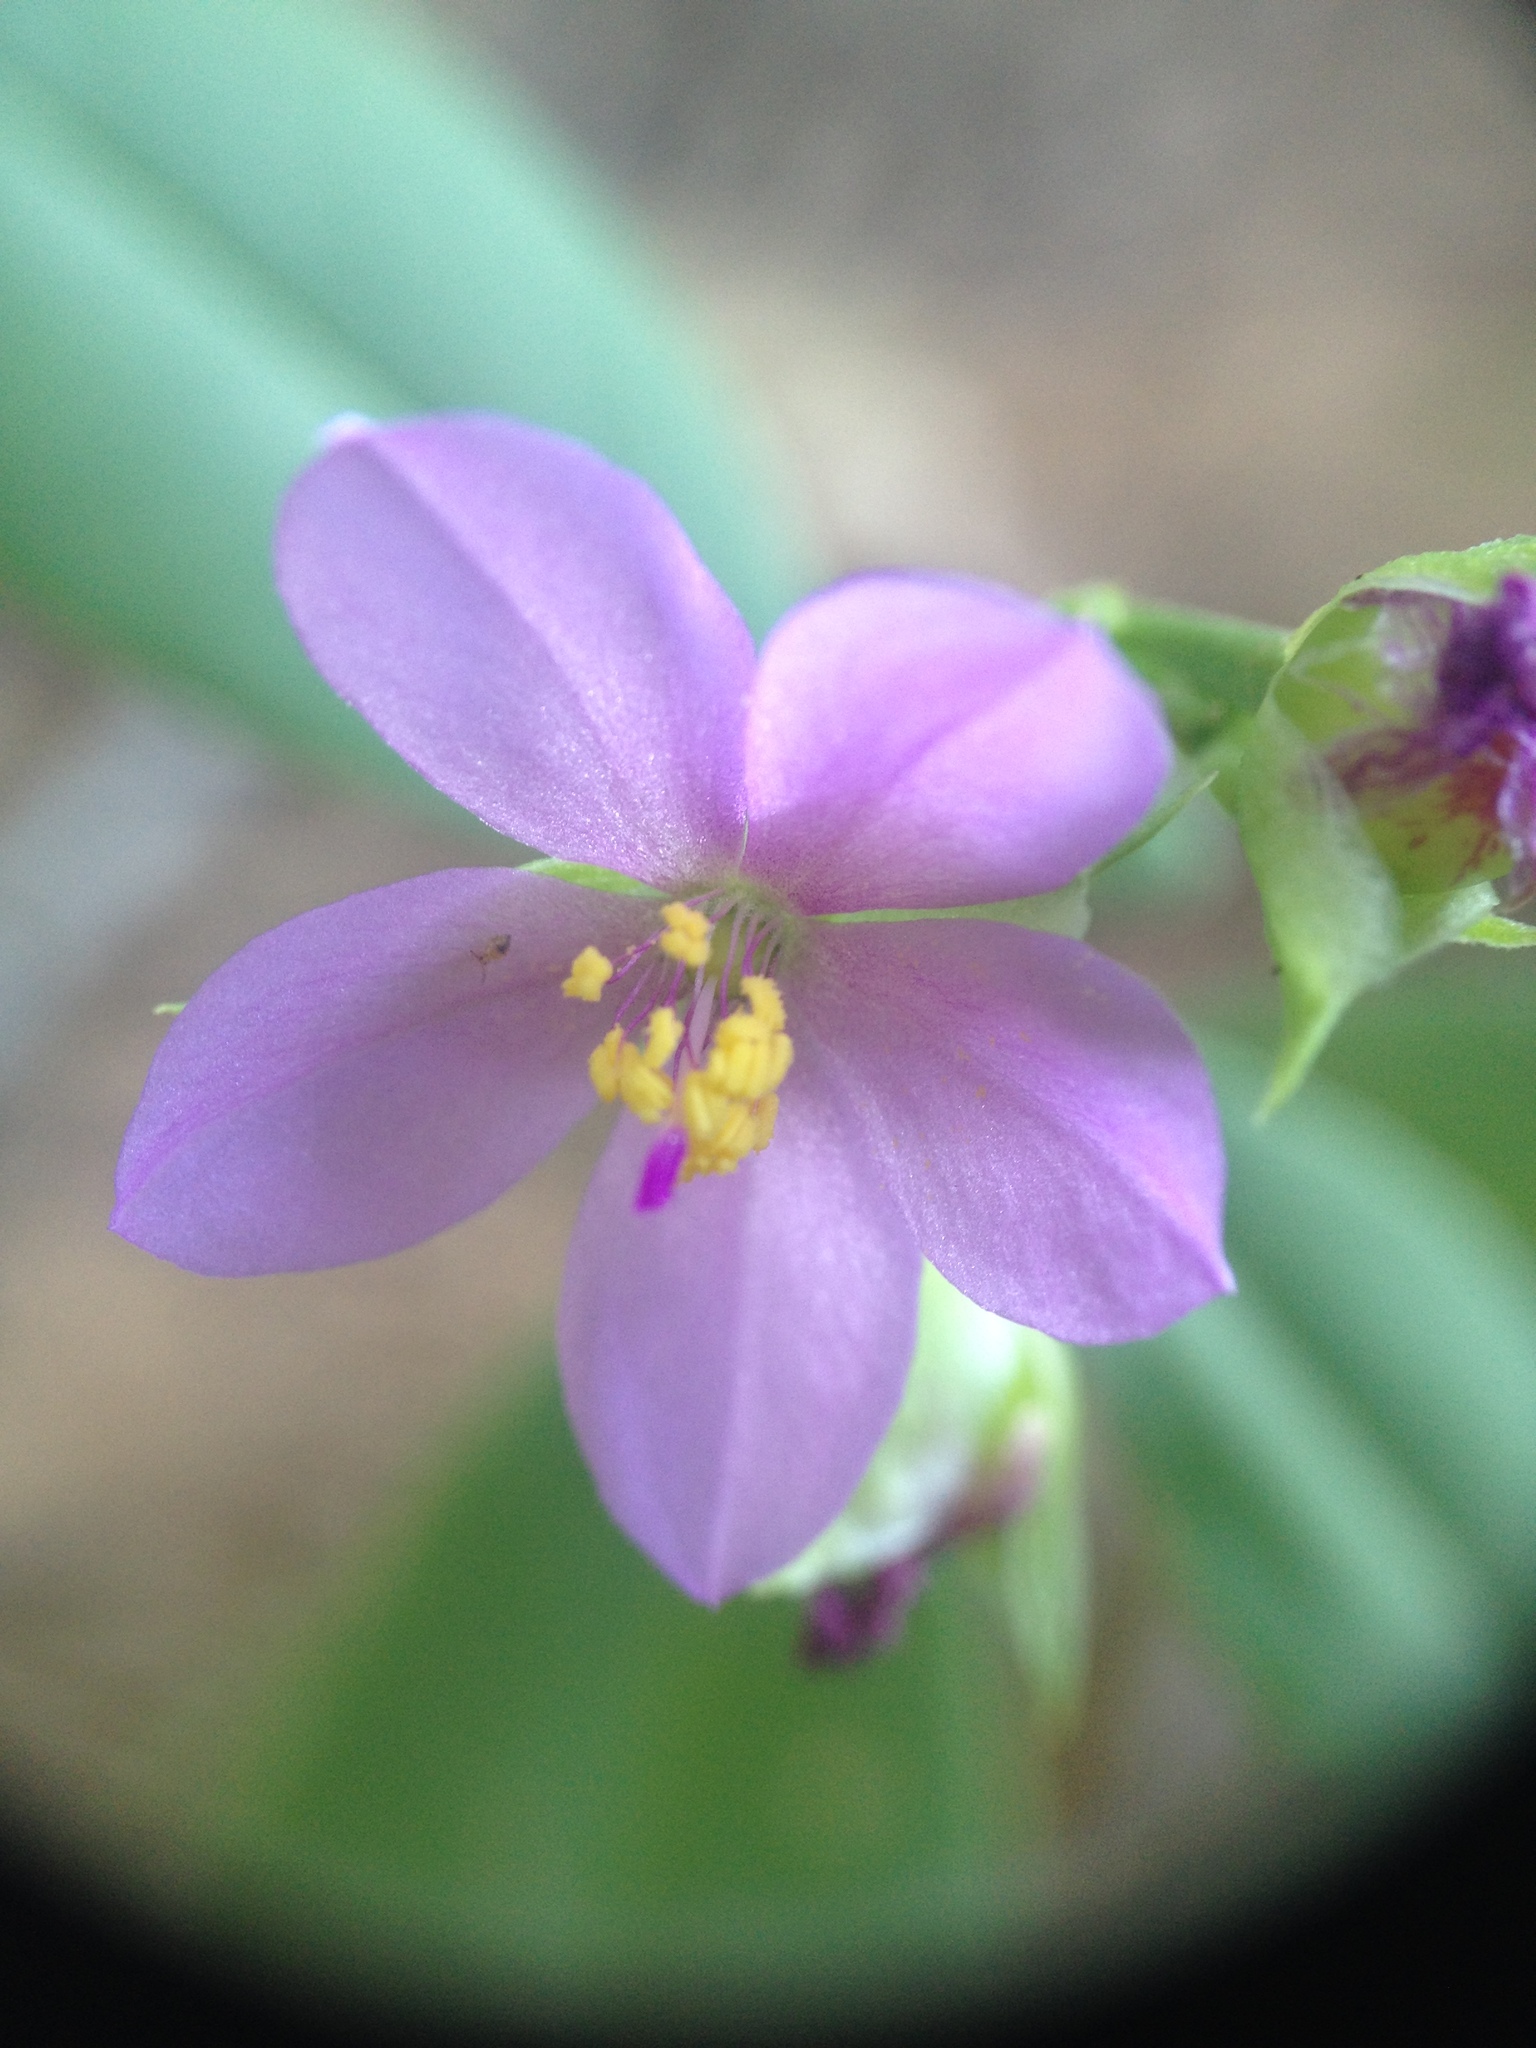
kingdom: Plantae
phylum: Tracheophyta
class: Magnoliopsida
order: Caryophyllales
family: Talinaceae
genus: Talinum
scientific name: Talinum fruticosum
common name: Verdolaga-francesa
